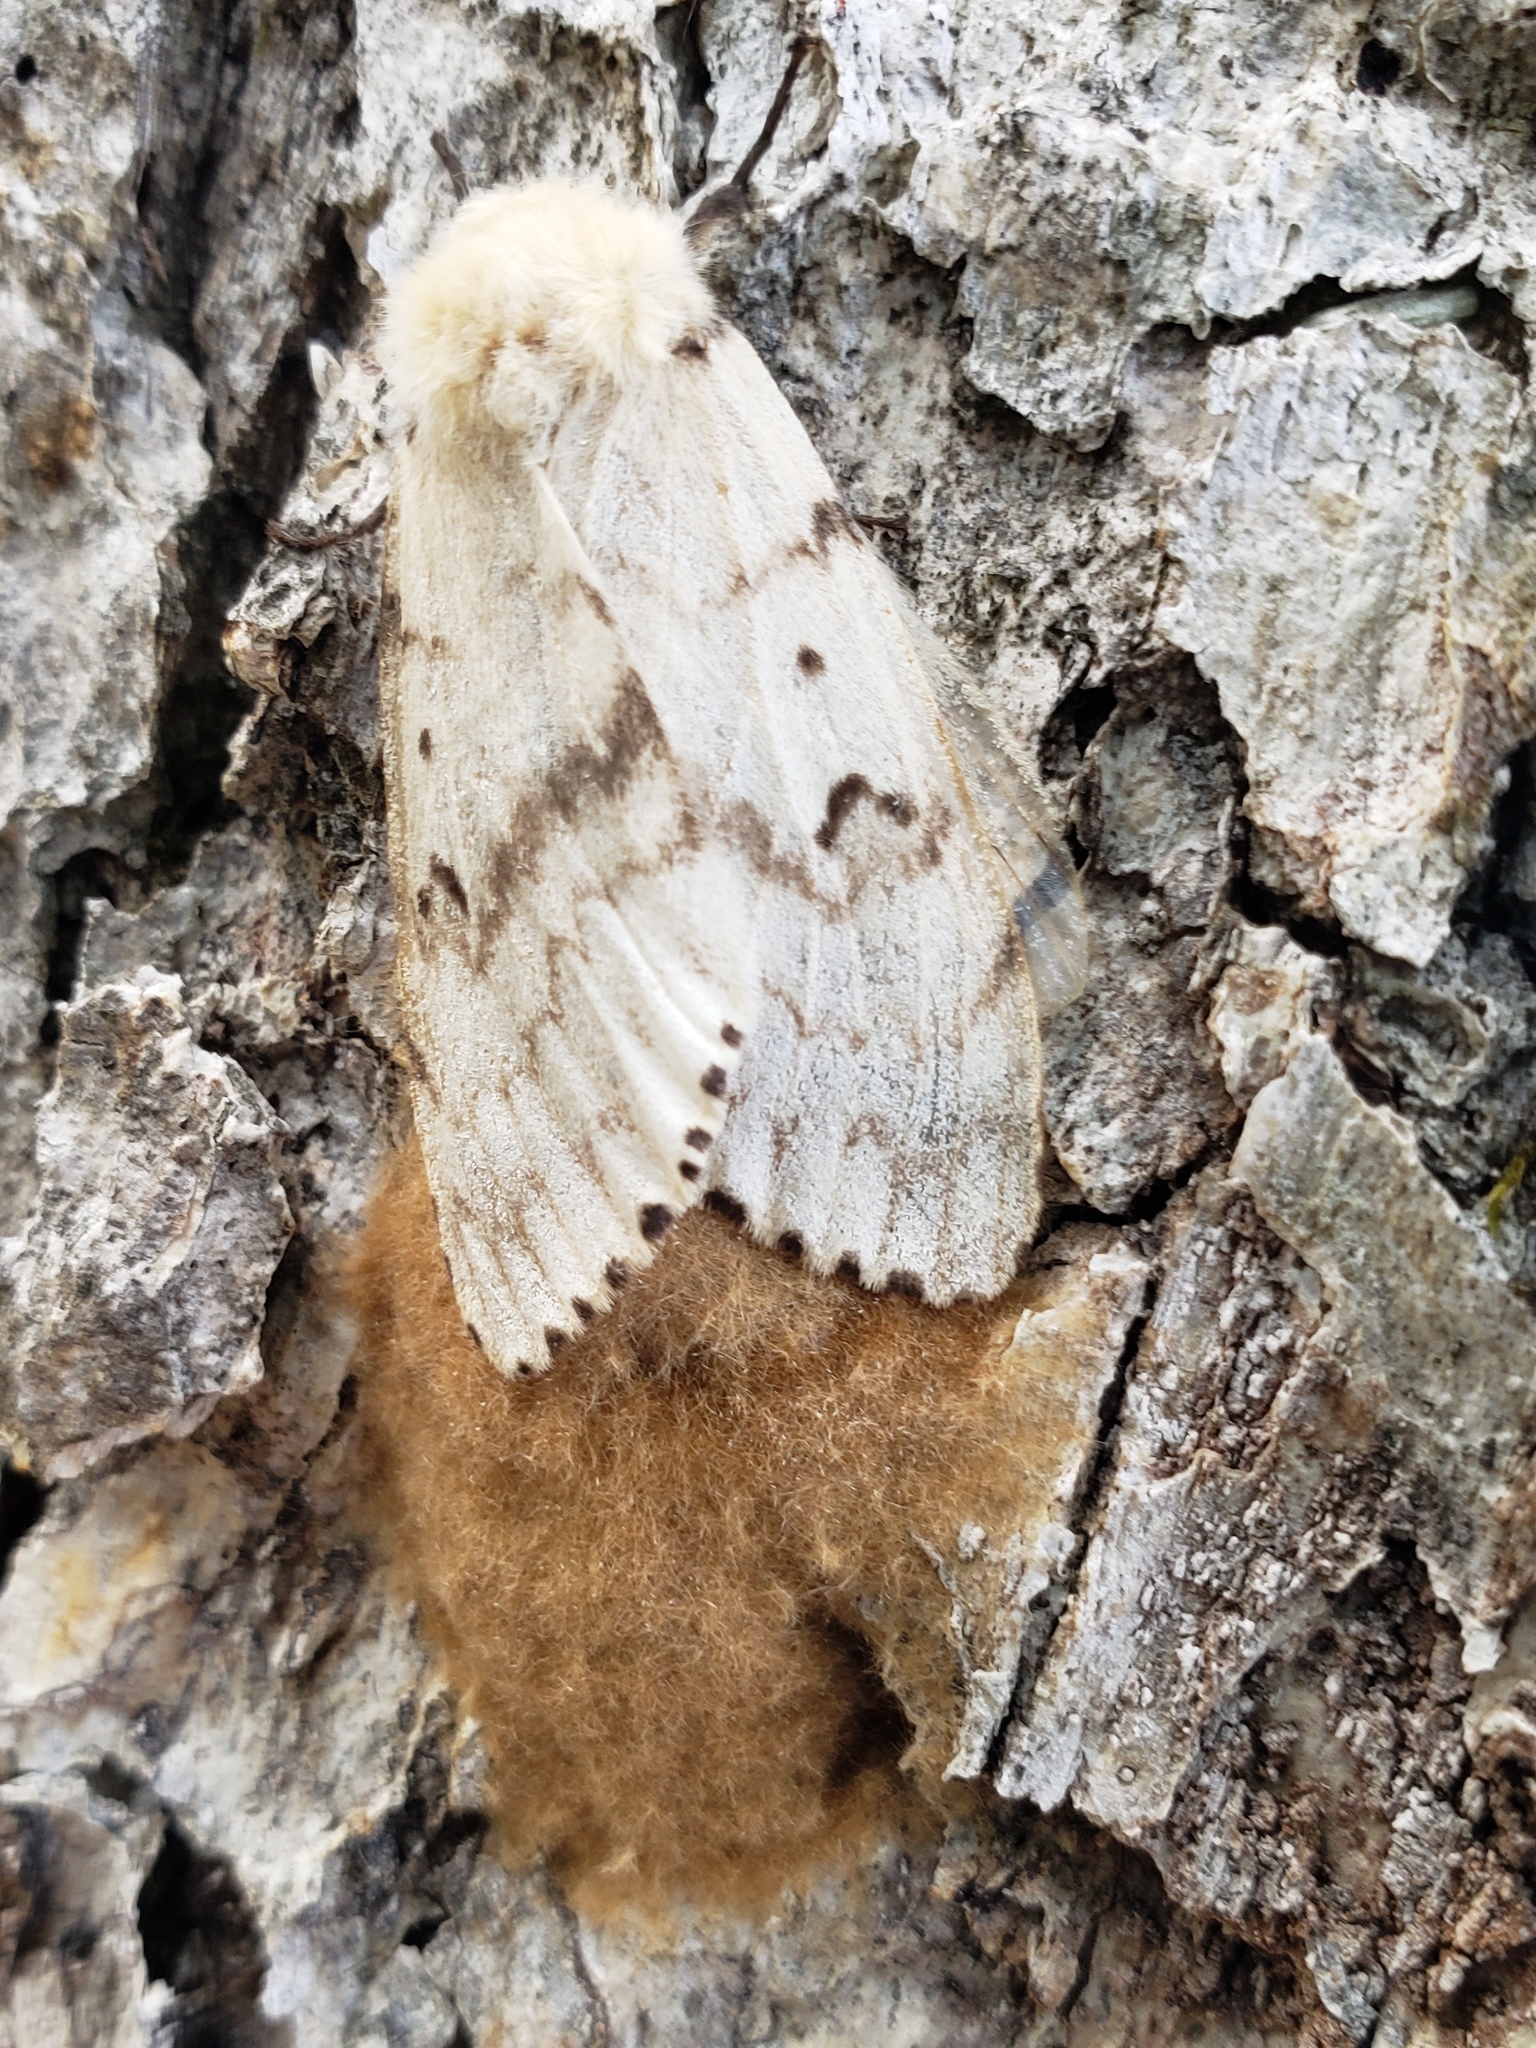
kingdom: Animalia
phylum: Arthropoda
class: Insecta
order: Lepidoptera
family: Erebidae
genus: Lymantria
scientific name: Lymantria dispar
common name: Gypsy moth
